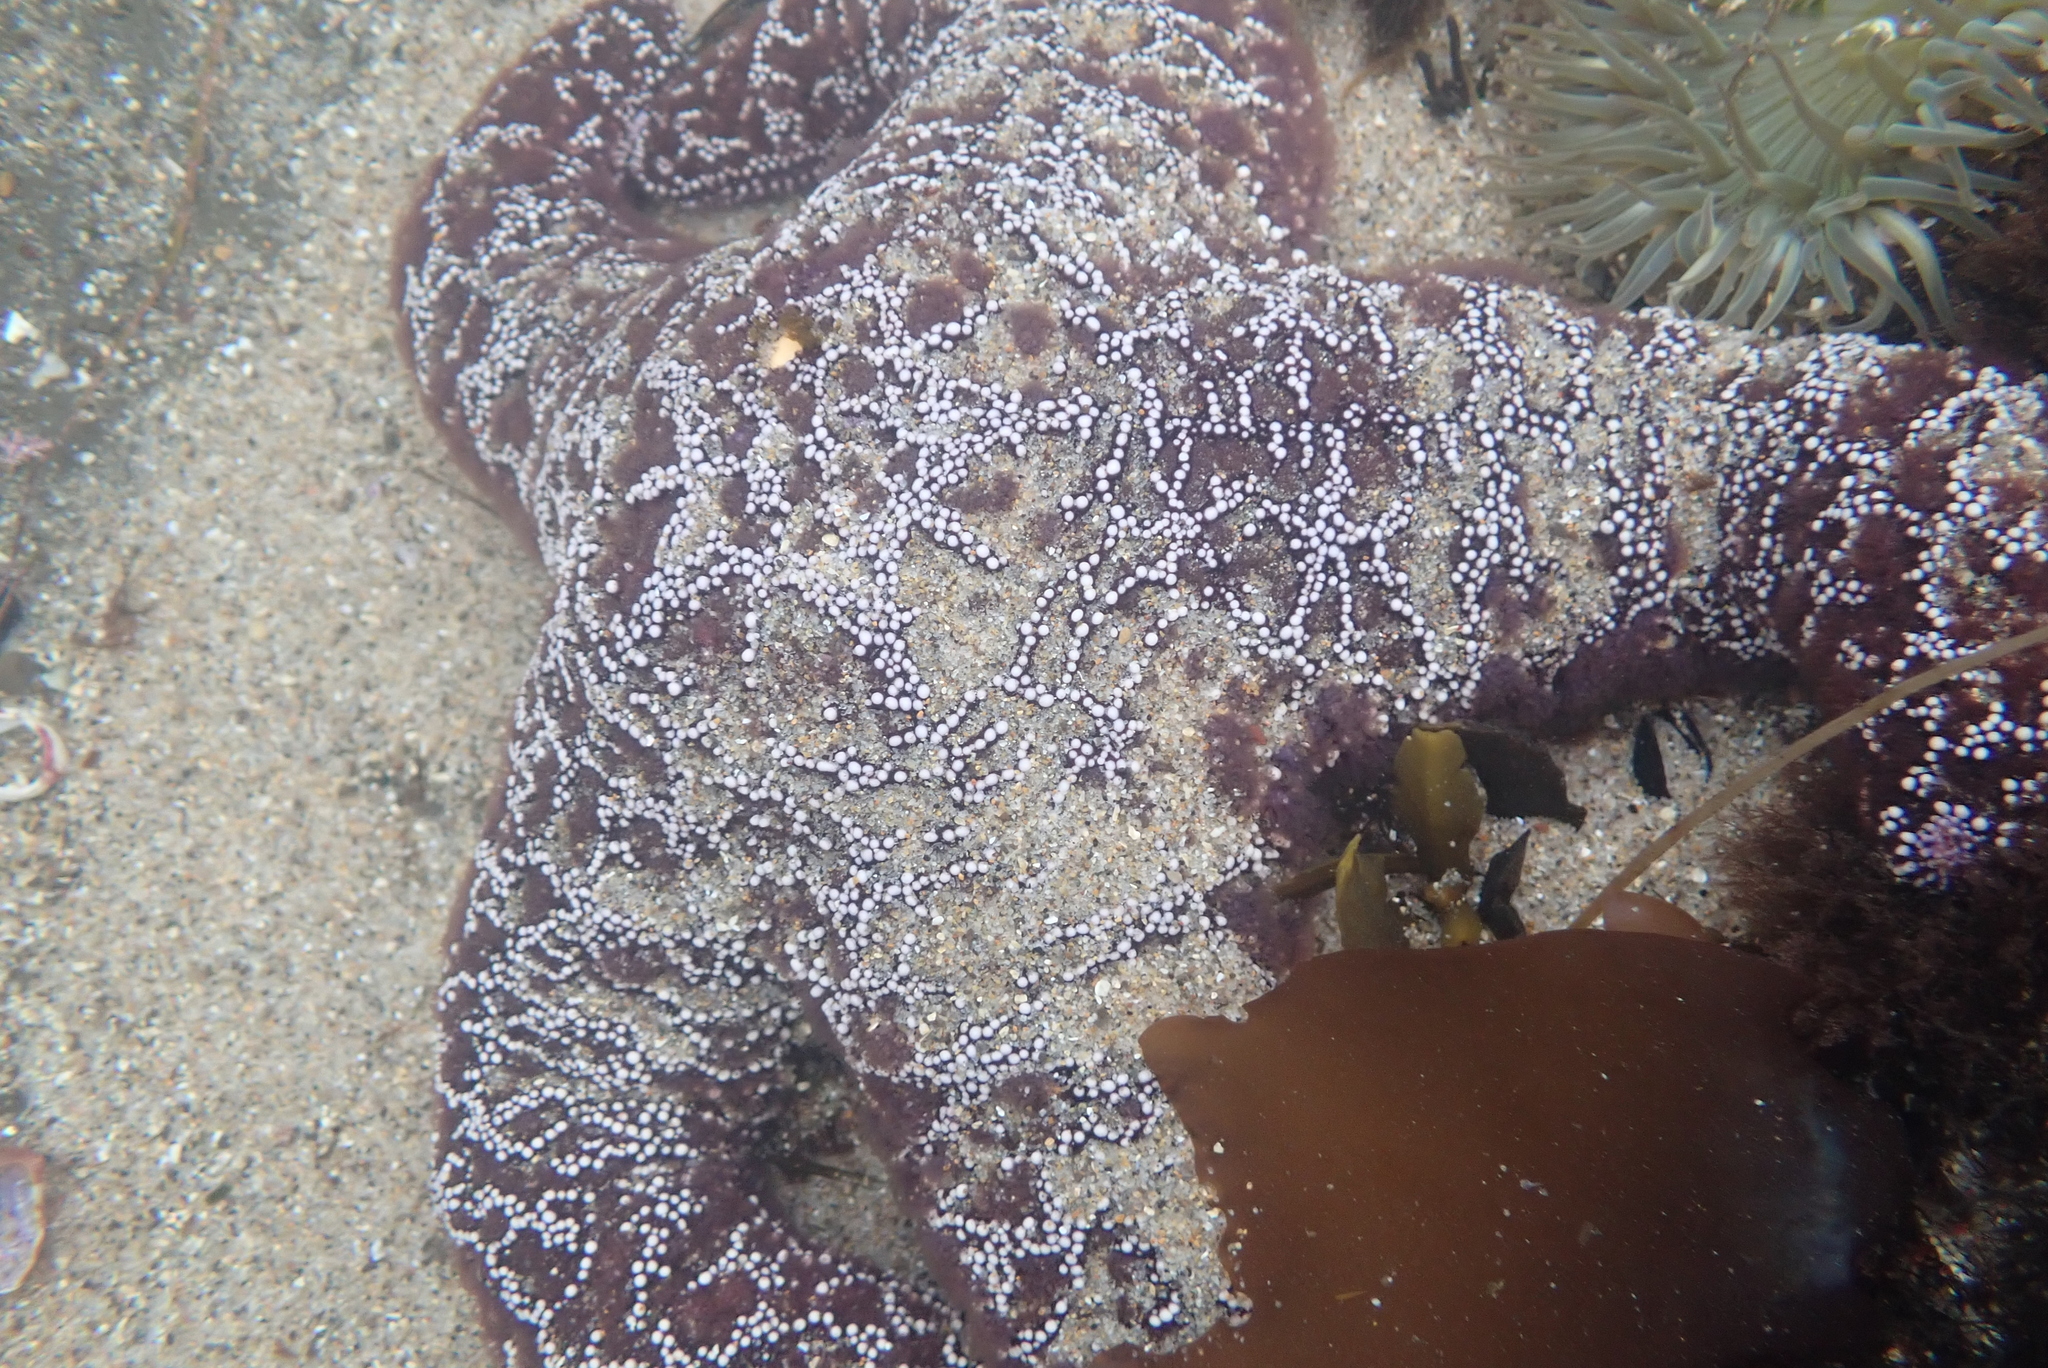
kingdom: Animalia
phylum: Echinodermata
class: Asteroidea
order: Forcipulatida
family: Asteriidae
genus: Pisaster
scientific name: Pisaster ochraceus
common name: Ochre stars
